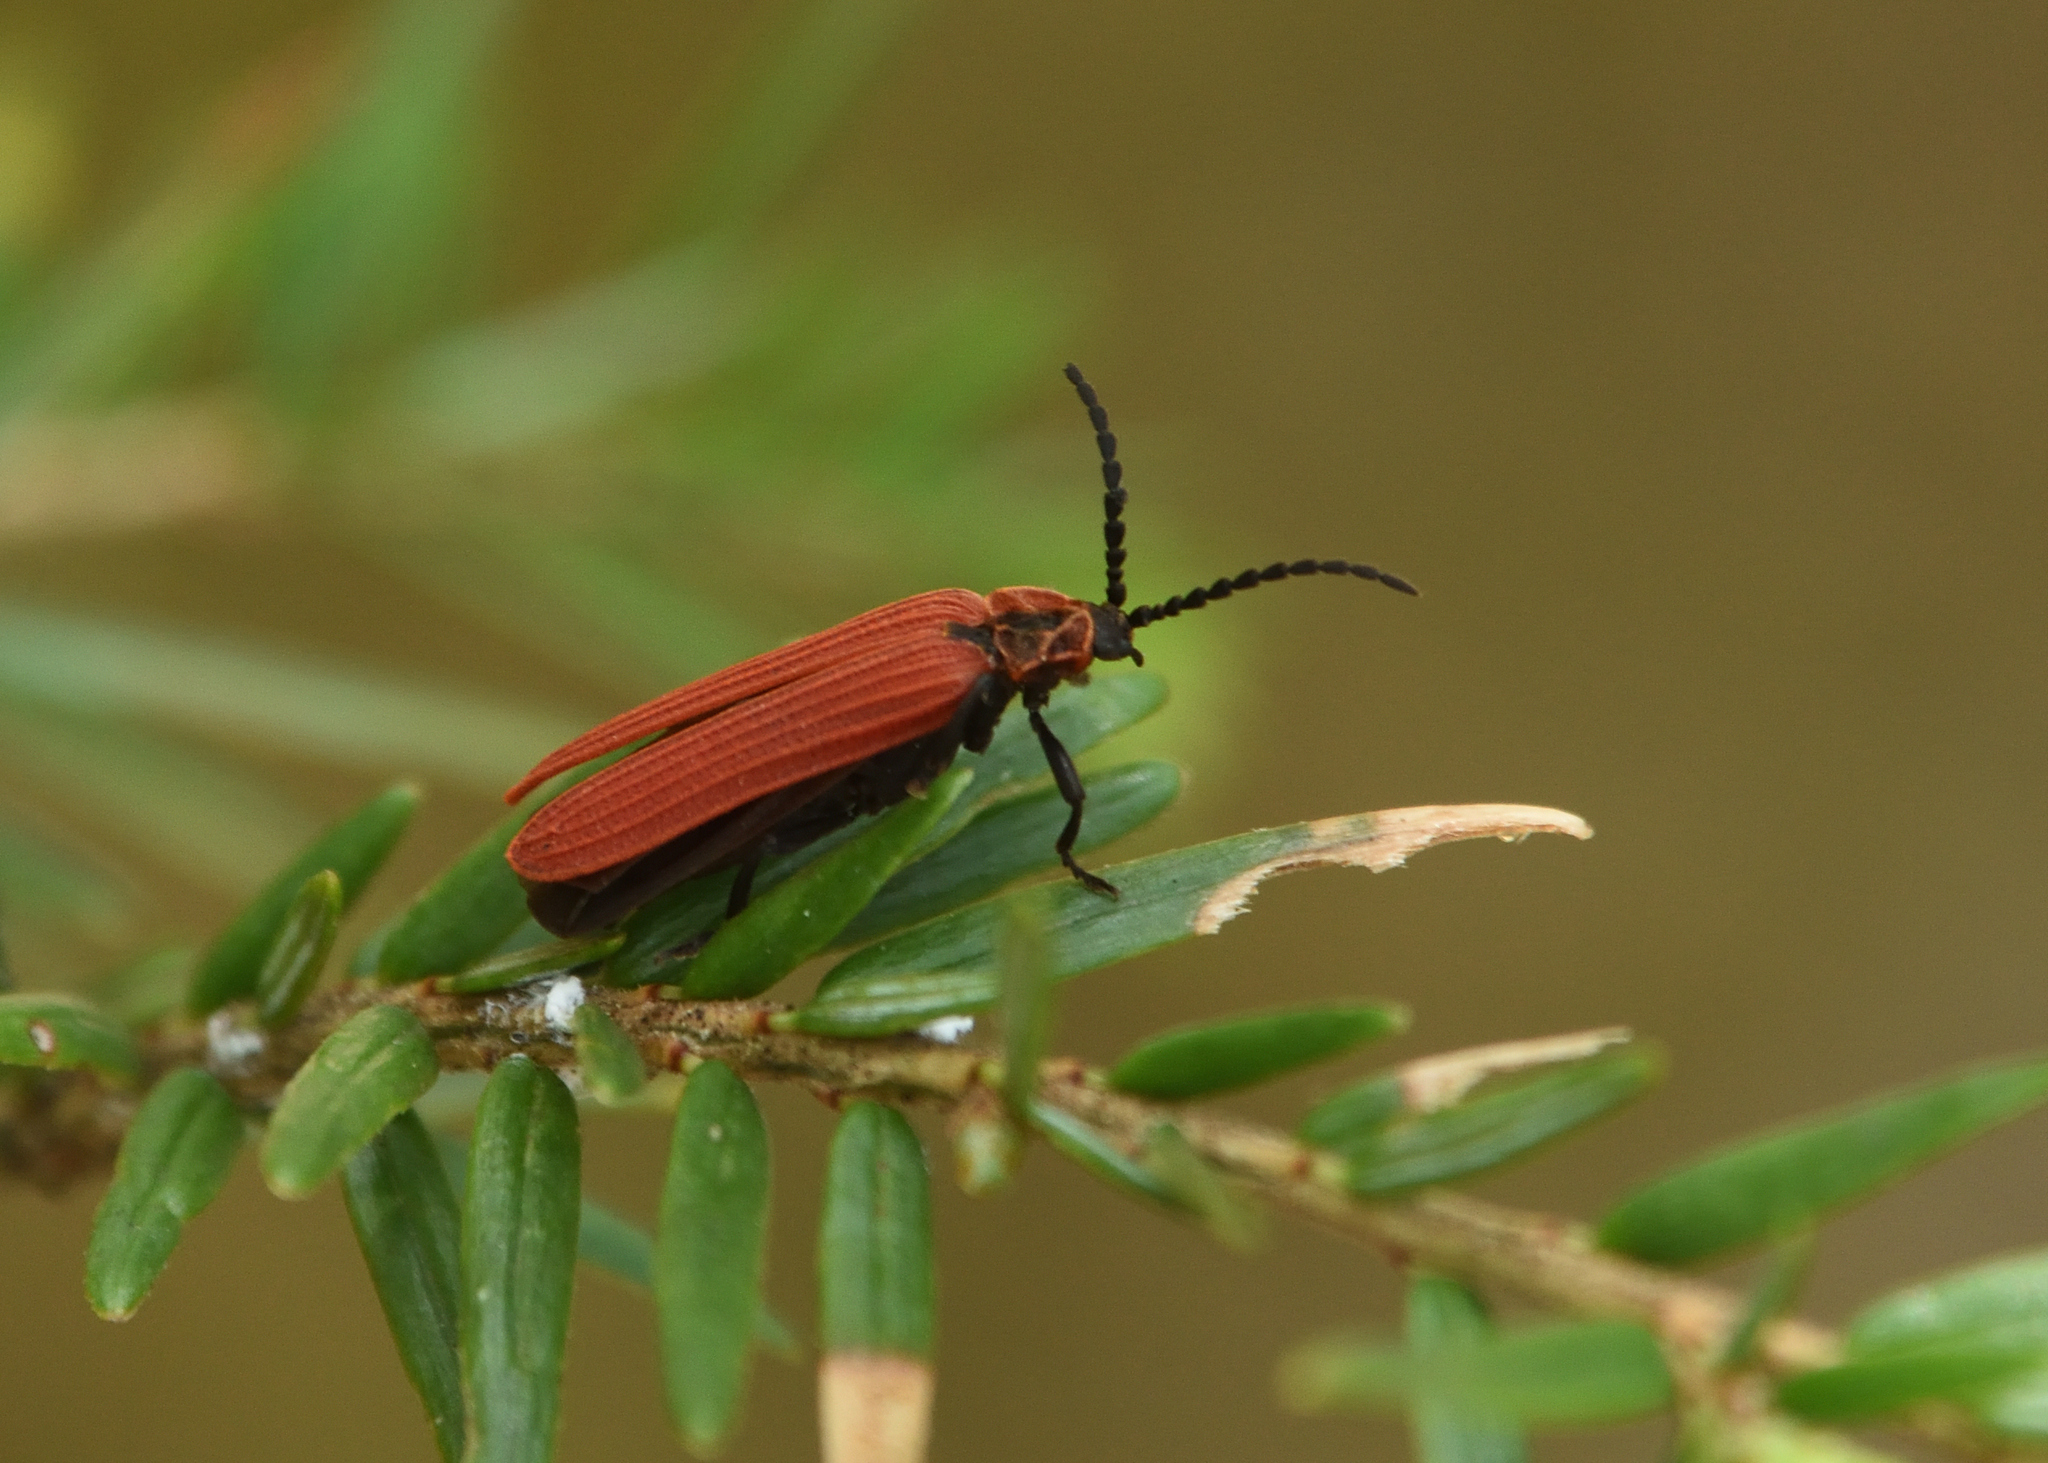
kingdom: Animalia
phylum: Arthropoda
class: Insecta
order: Coleoptera
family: Lycidae
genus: Dictyoptera
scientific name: Dictyoptera aurora
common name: Golden net-winged beetle
